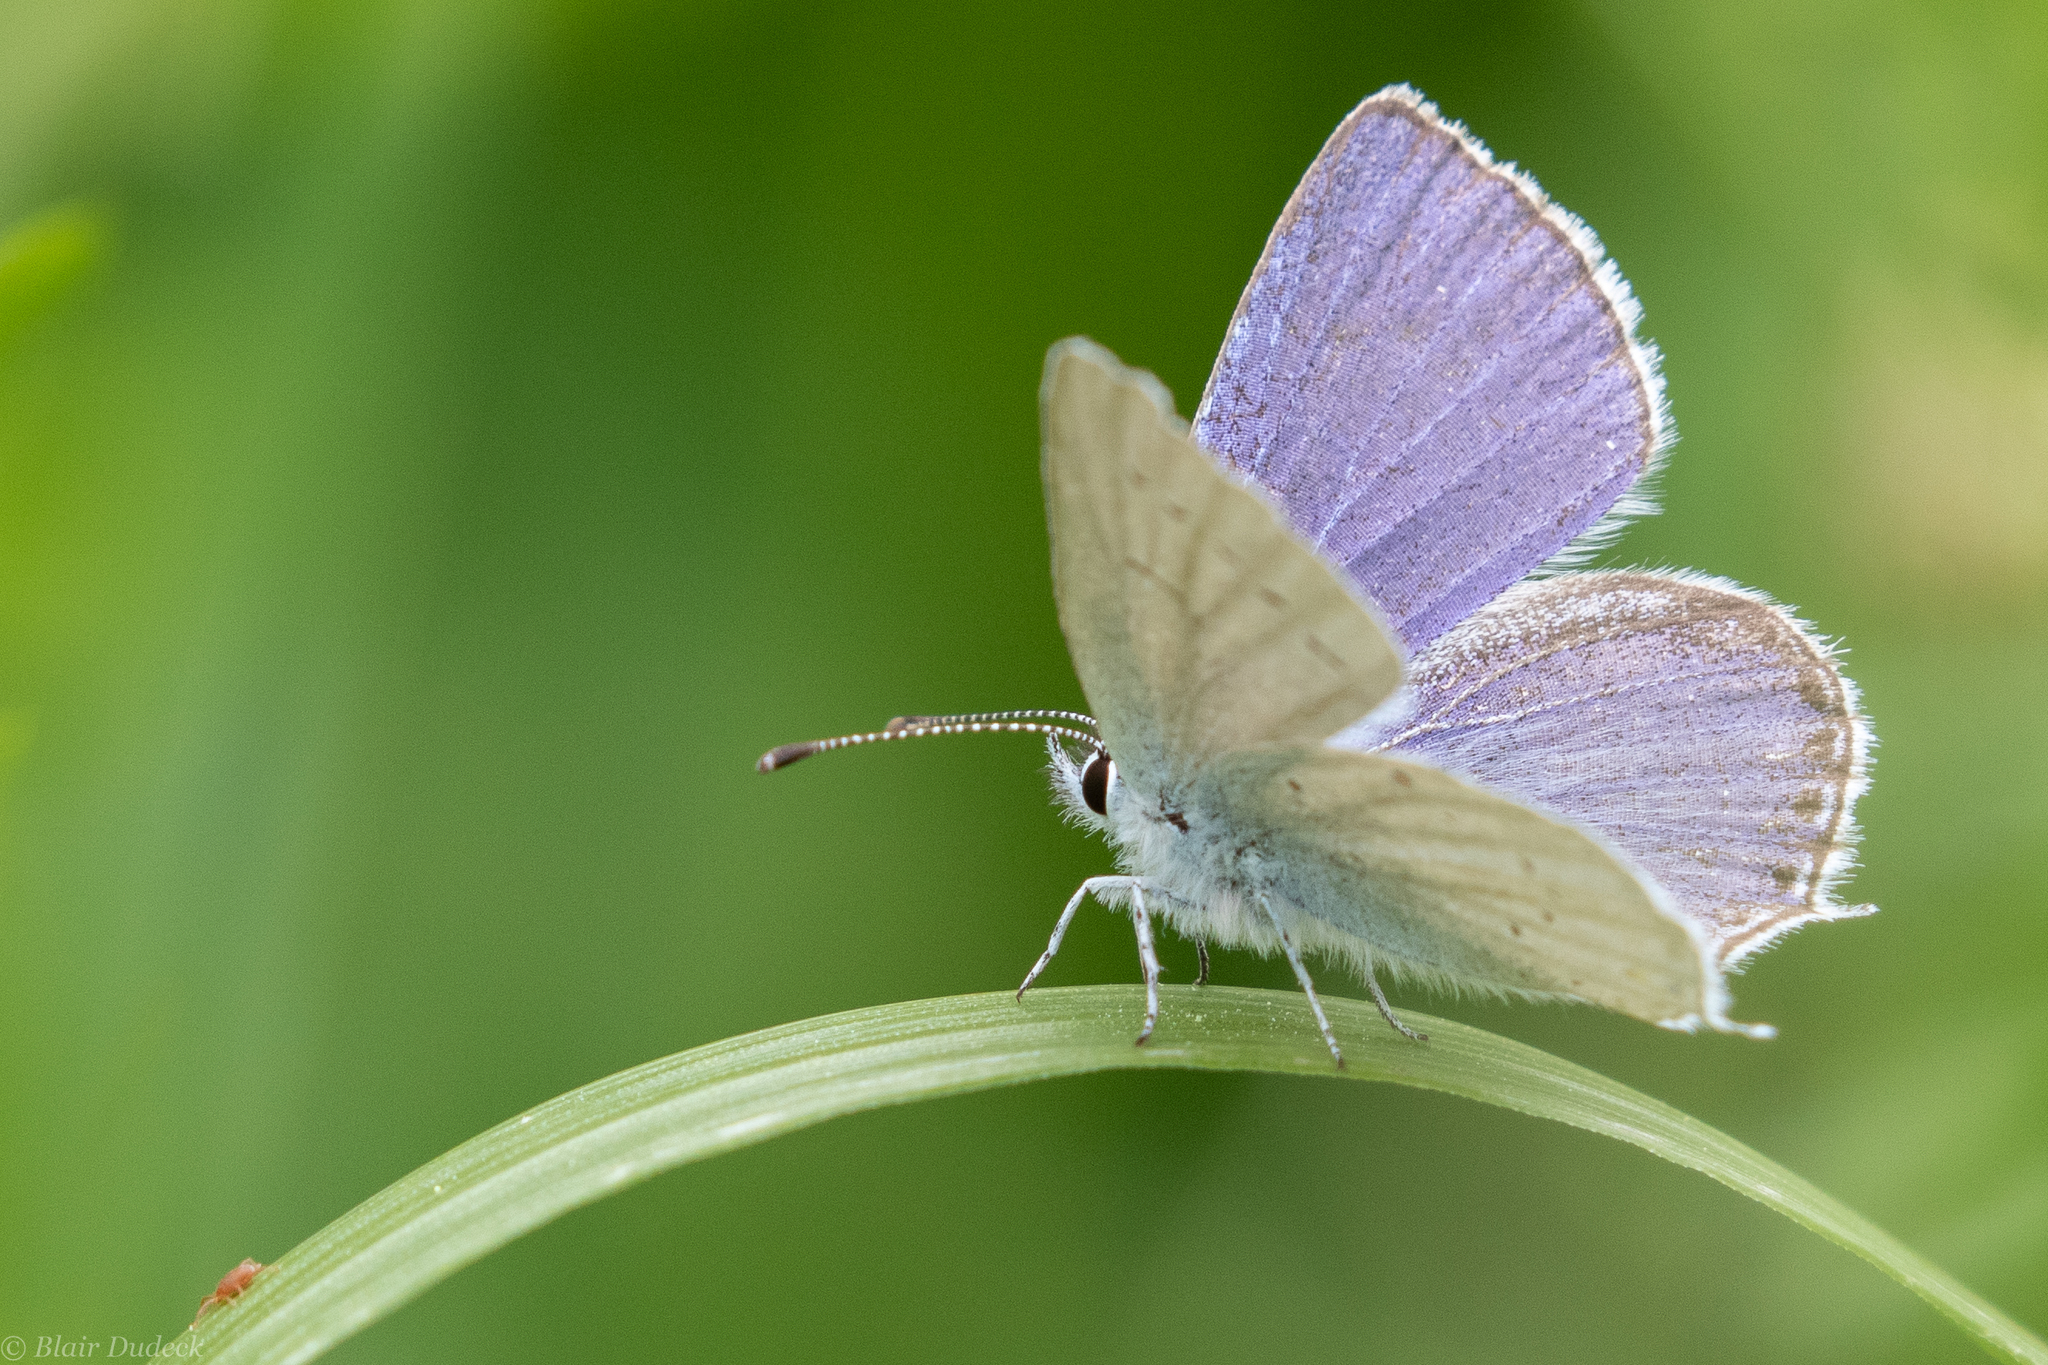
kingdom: Animalia
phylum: Arthropoda
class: Insecta
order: Lepidoptera
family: Lycaenidae
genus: Elkalyce
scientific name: Elkalyce amyntula
